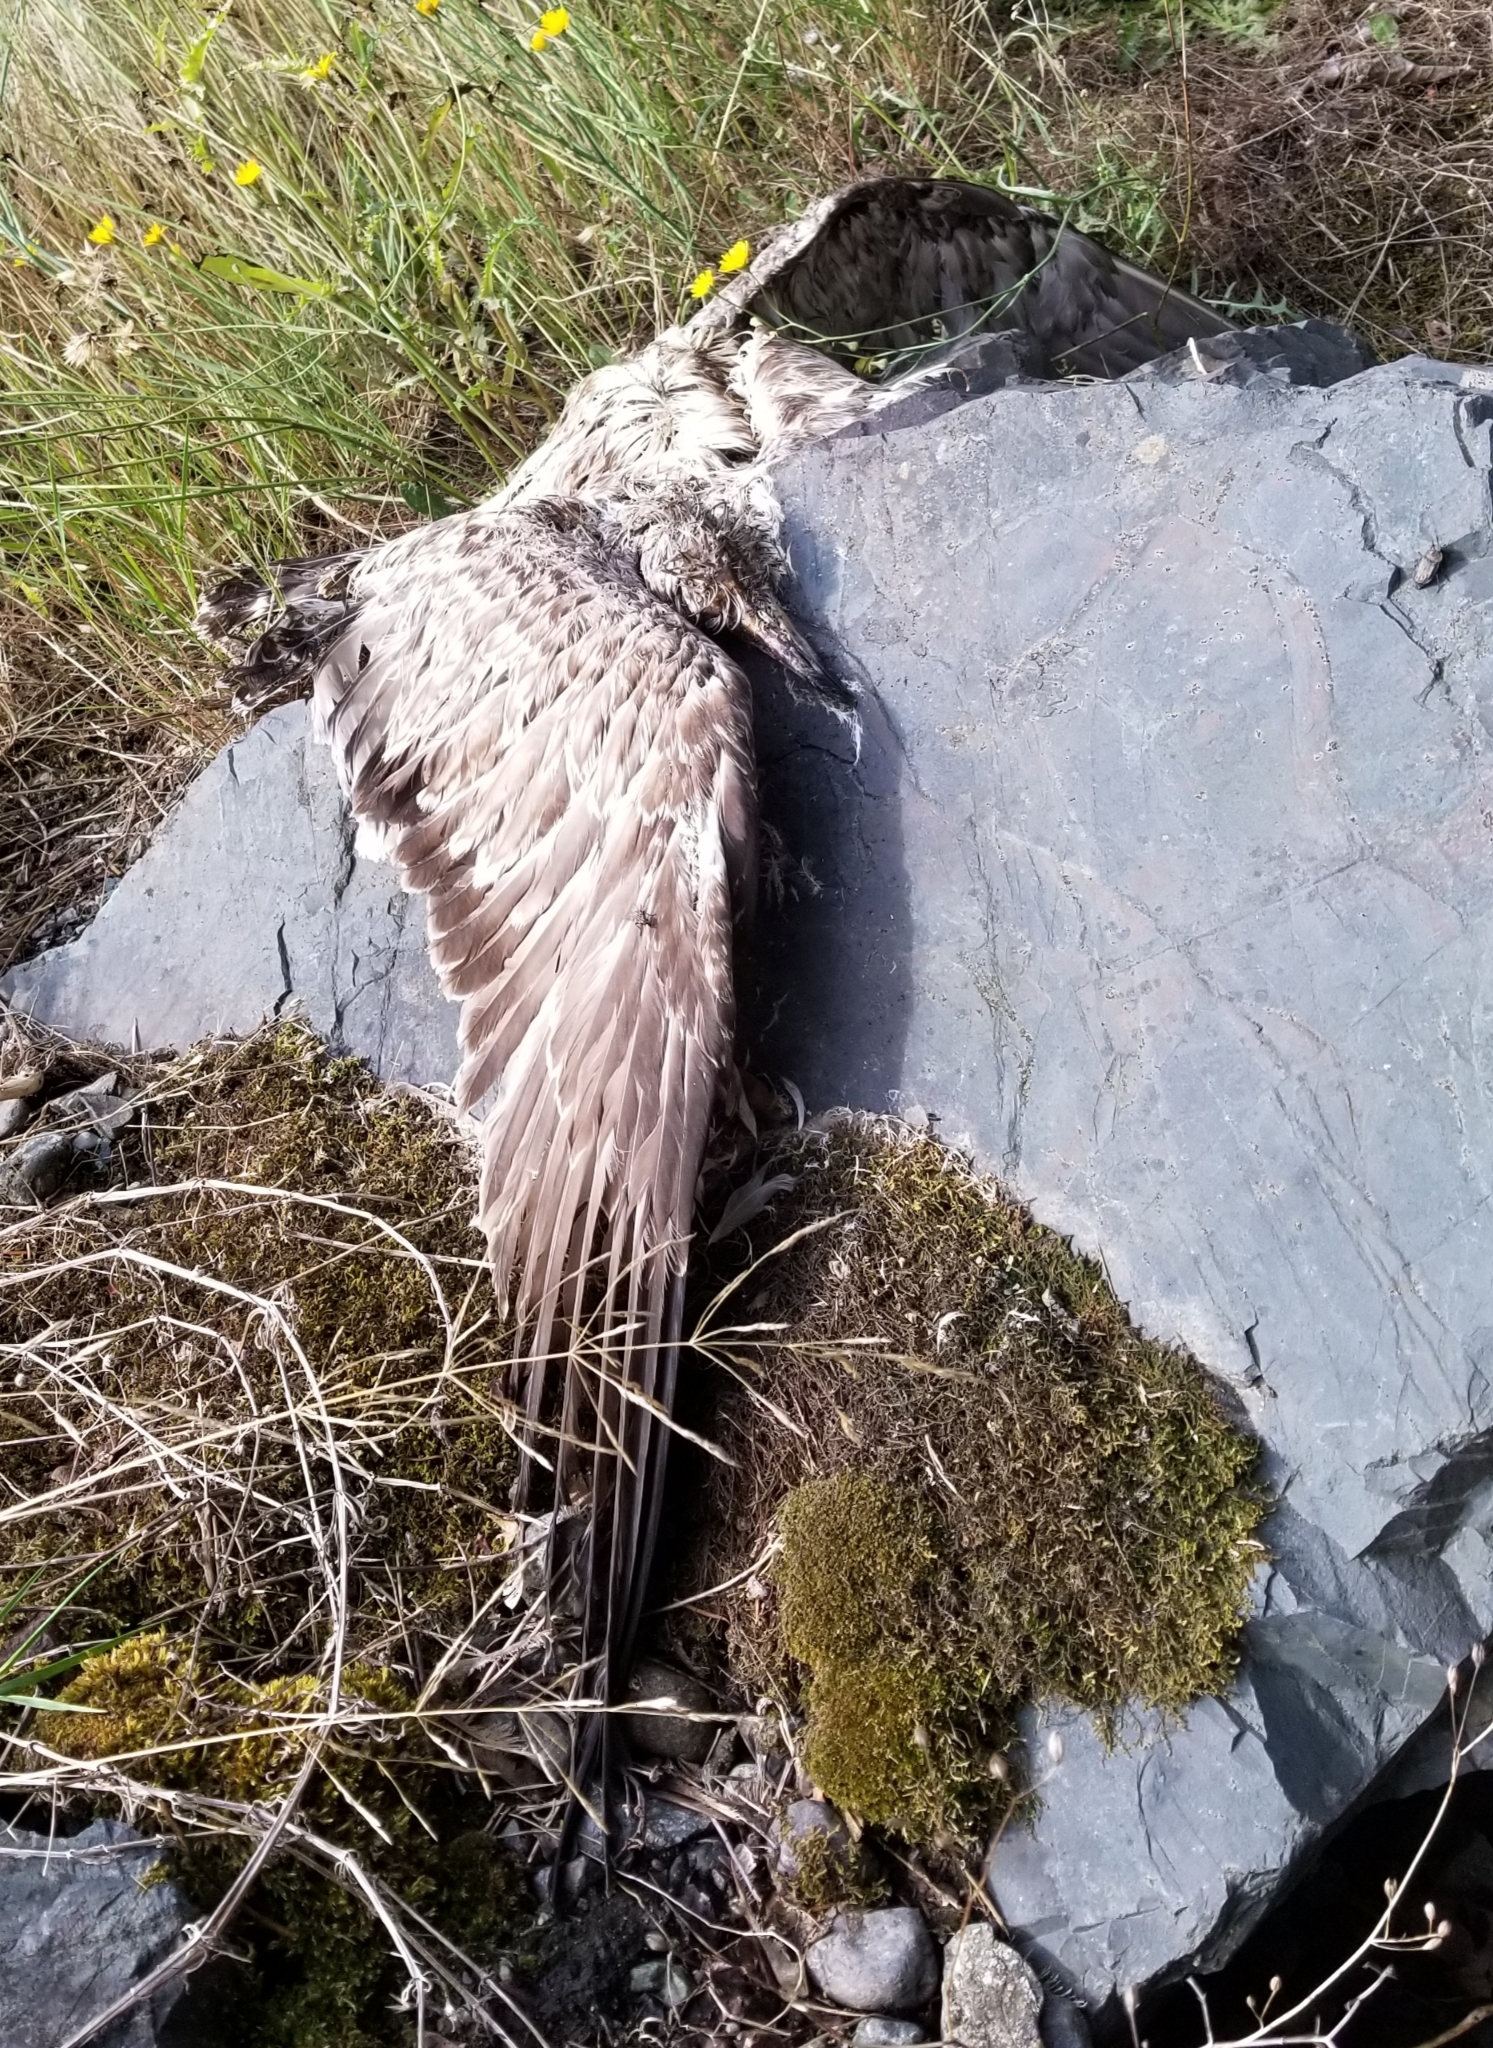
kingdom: Animalia
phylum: Chordata
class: Aves
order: Charadriiformes
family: Laridae
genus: Larus
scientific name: Larus
